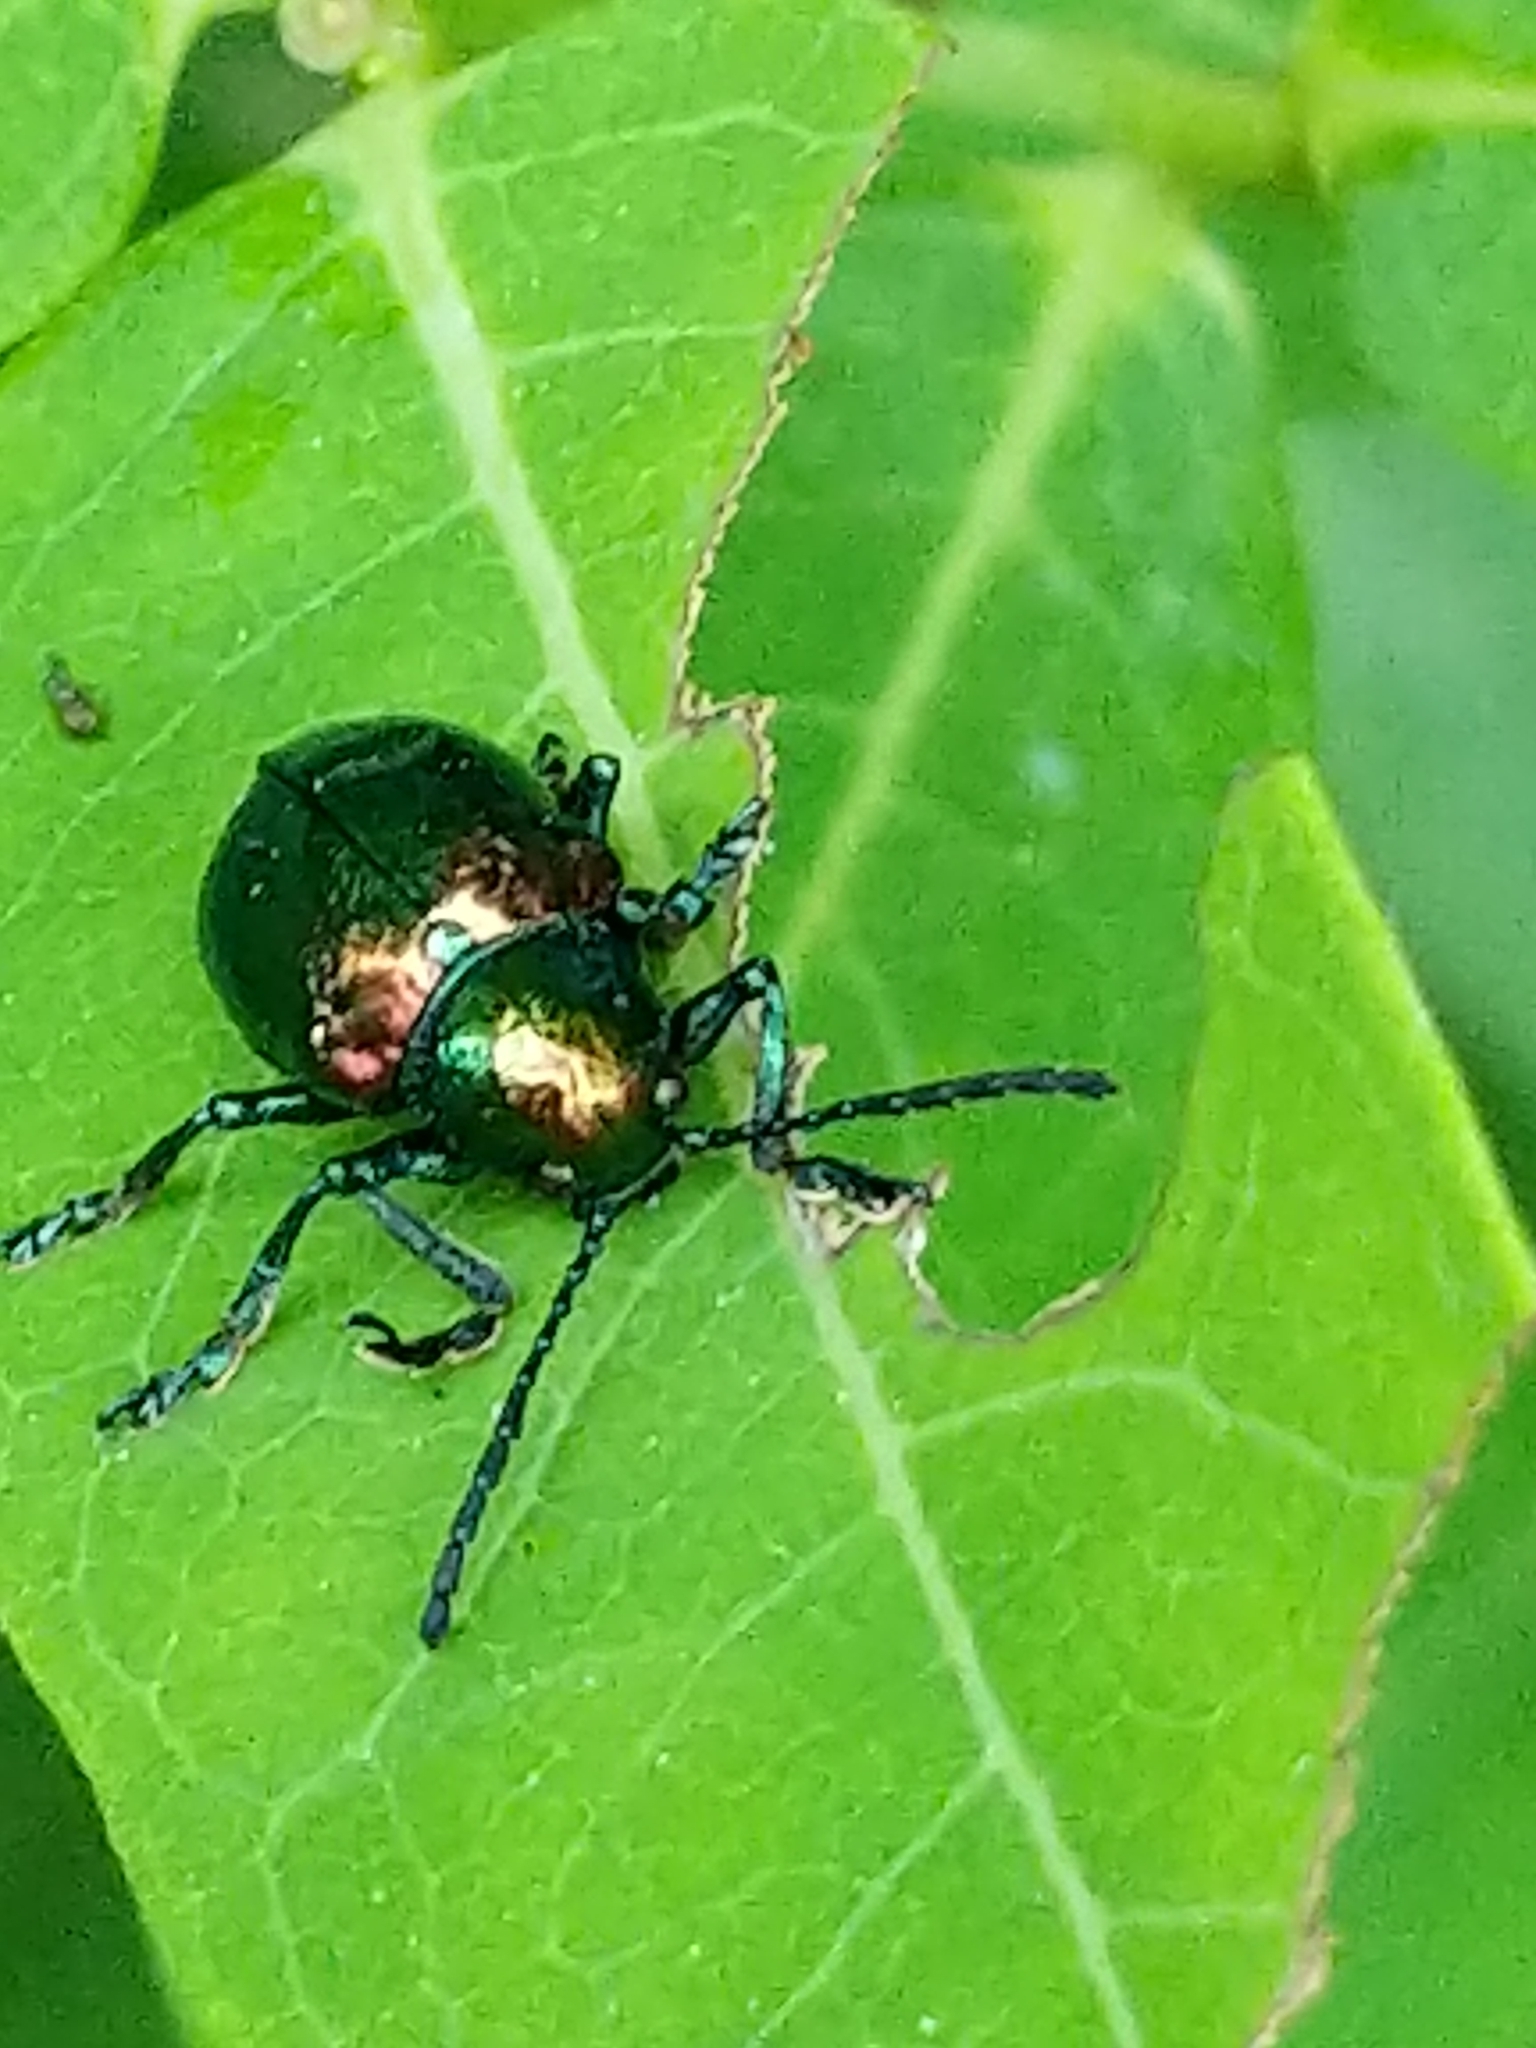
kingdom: Animalia
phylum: Arthropoda
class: Insecta
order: Coleoptera
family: Chrysomelidae
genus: Chrysochus
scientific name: Chrysochus auratus
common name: Dogbane leaf beetle
